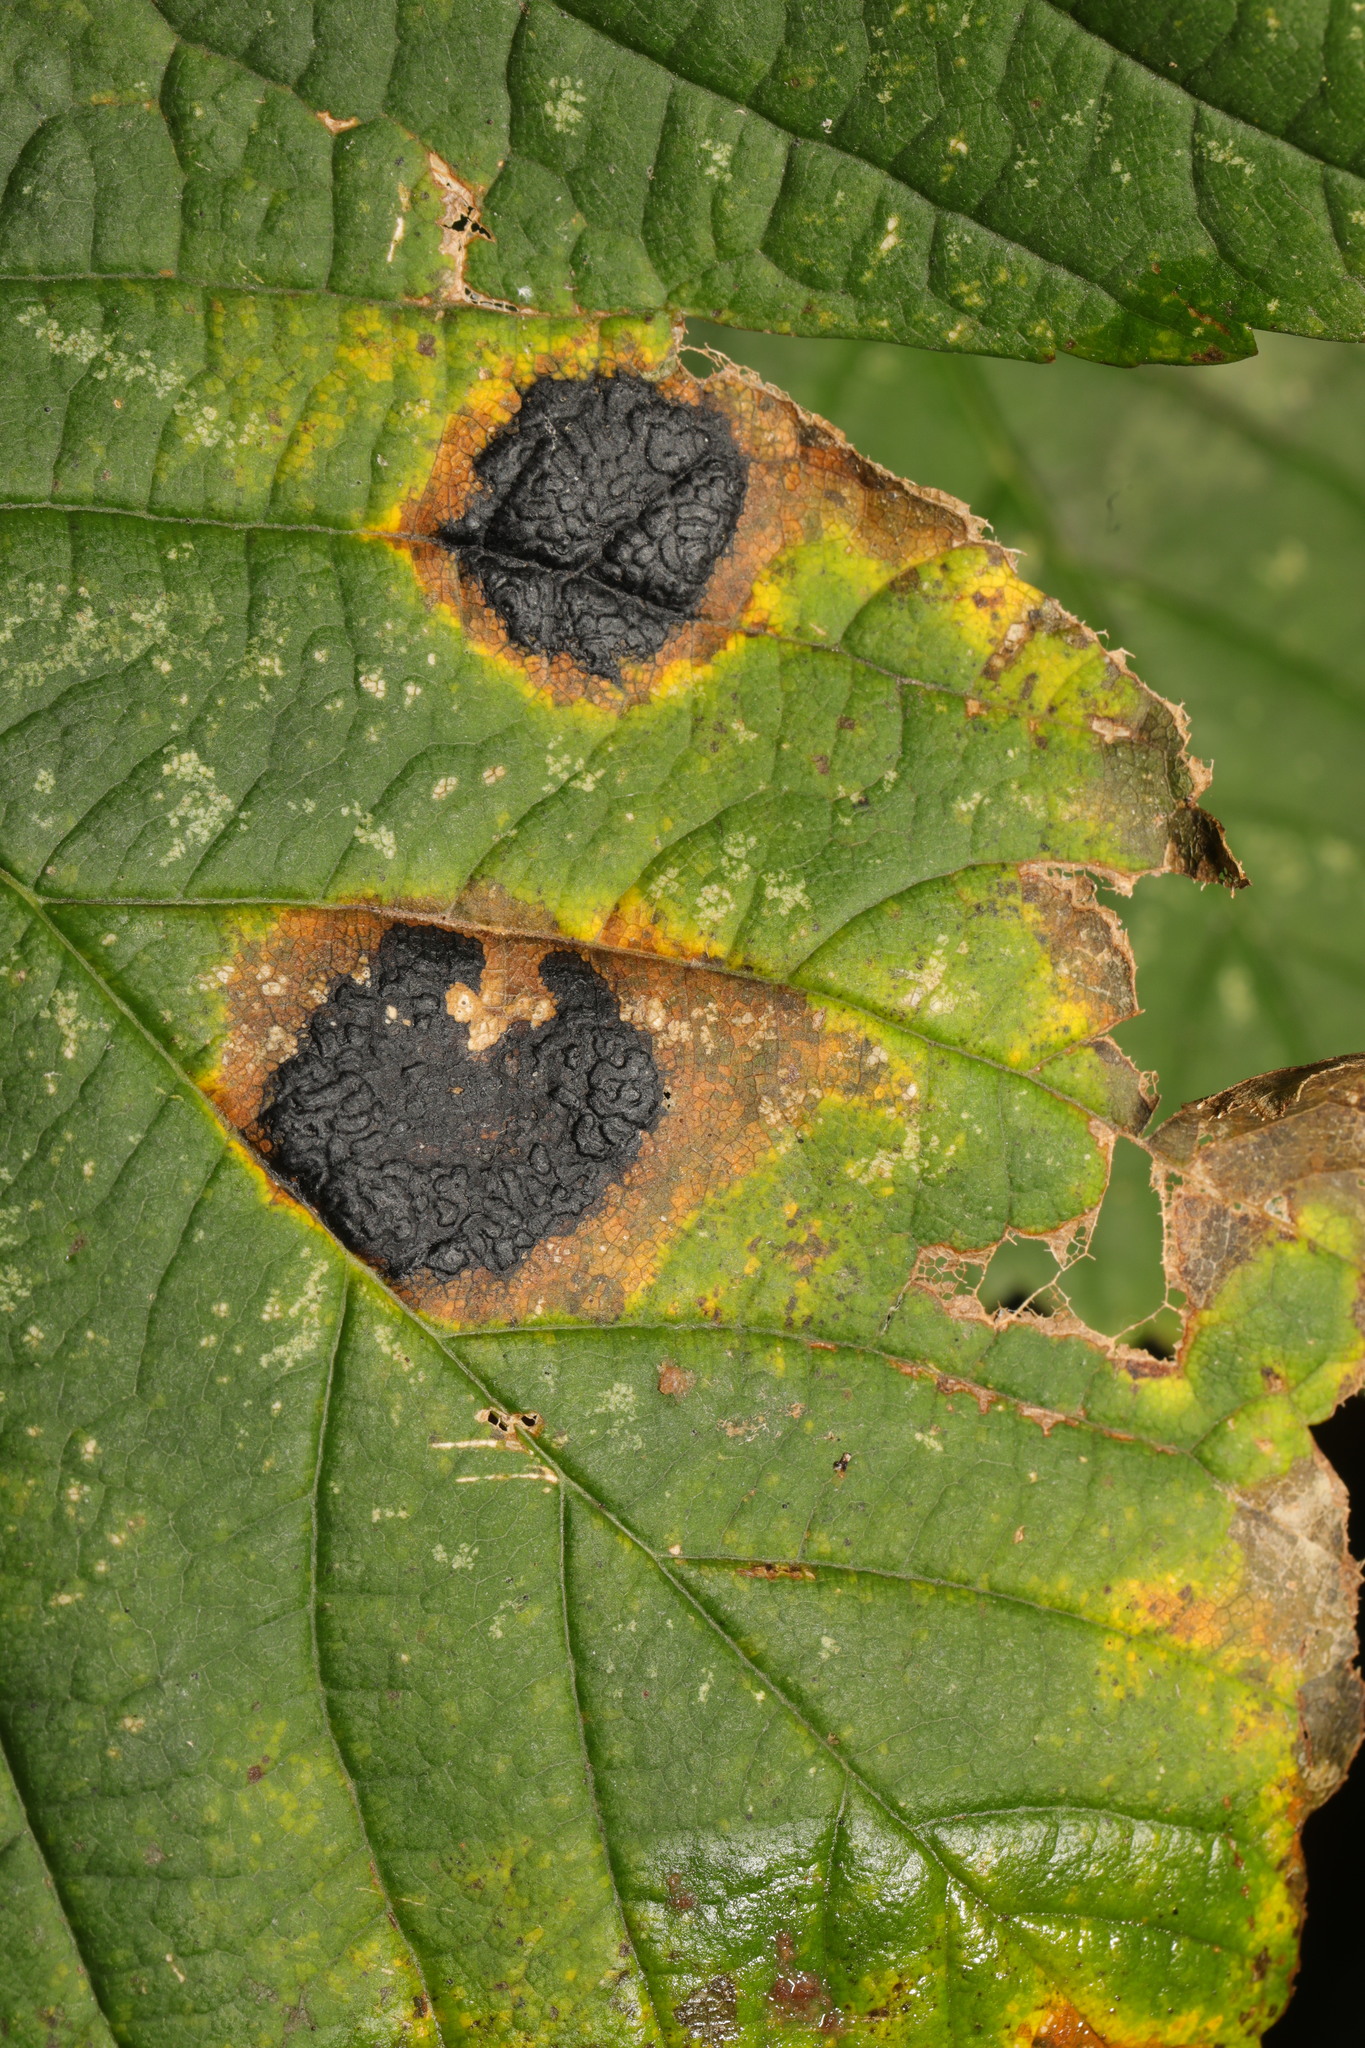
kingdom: Fungi
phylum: Ascomycota
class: Leotiomycetes
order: Rhytismatales
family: Rhytismataceae
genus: Rhytisma
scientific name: Rhytisma acerinum
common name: European tar spot
